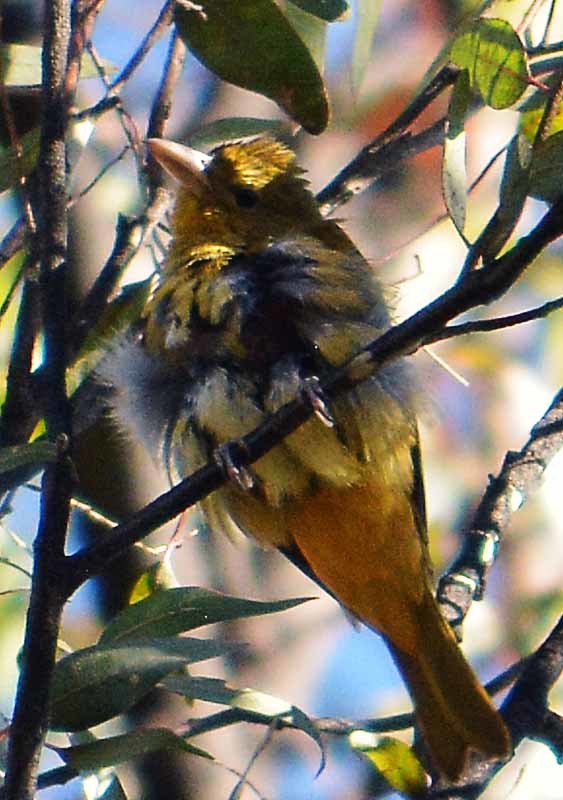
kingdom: Animalia
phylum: Chordata
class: Aves
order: Passeriformes
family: Cardinalidae
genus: Piranga
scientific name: Piranga rubra
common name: Summer tanager
